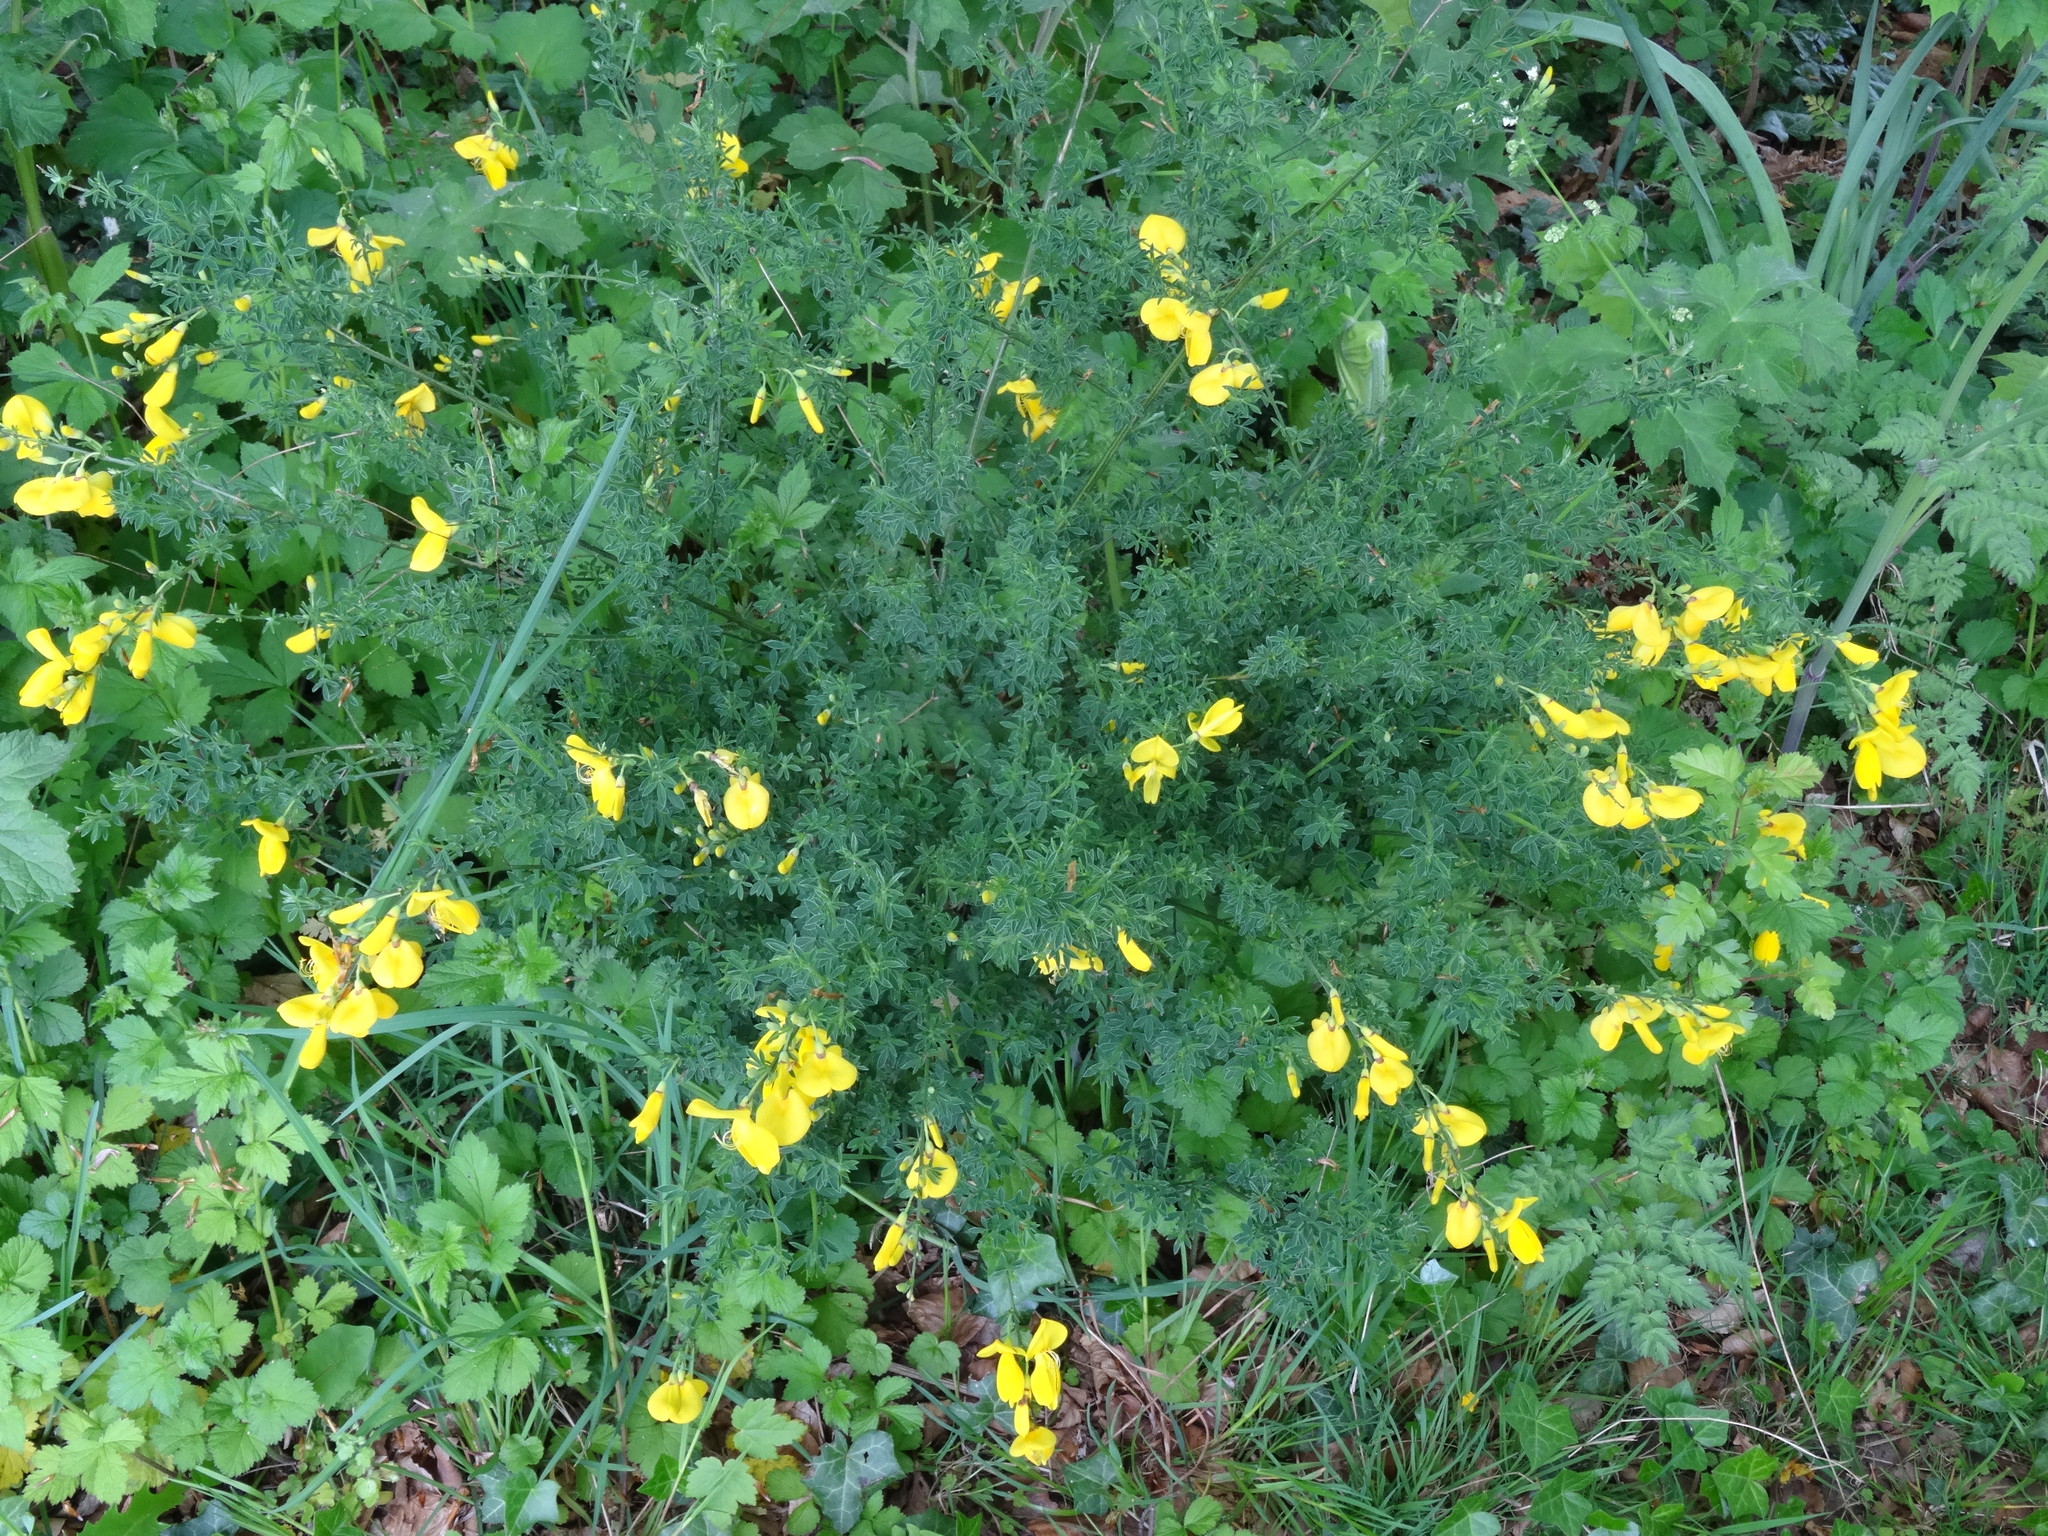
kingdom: Plantae
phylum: Tracheophyta
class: Magnoliopsida
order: Fabales
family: Fabaceae
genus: Cytisus
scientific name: Cytisus scoparius
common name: Scotch broom
